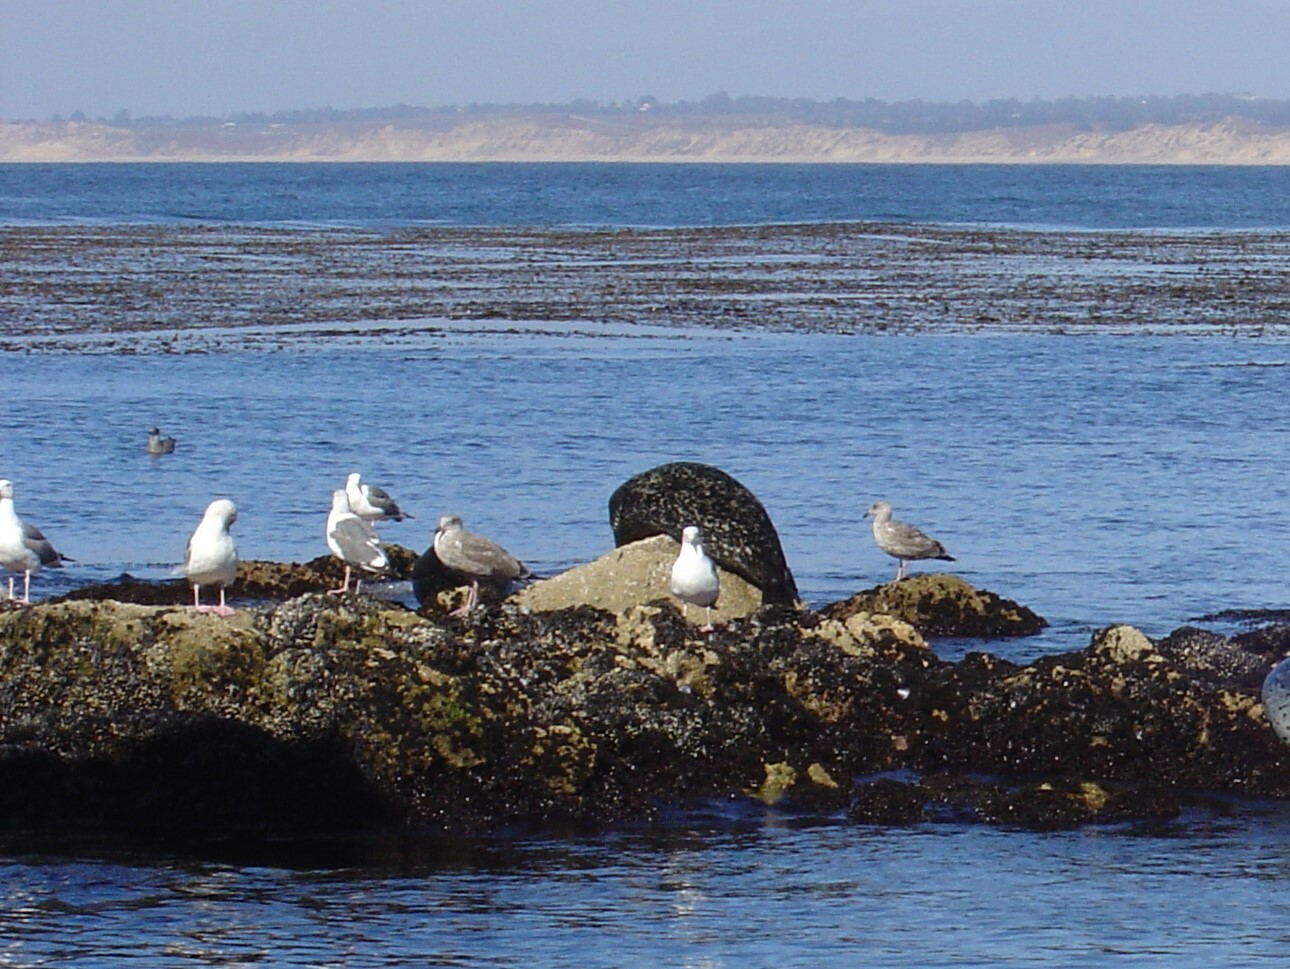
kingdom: Animalia
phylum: Chordata
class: Aves
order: Charadriiformes
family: Laridae
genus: Larus
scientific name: Larus occidentalis
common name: Western gull
